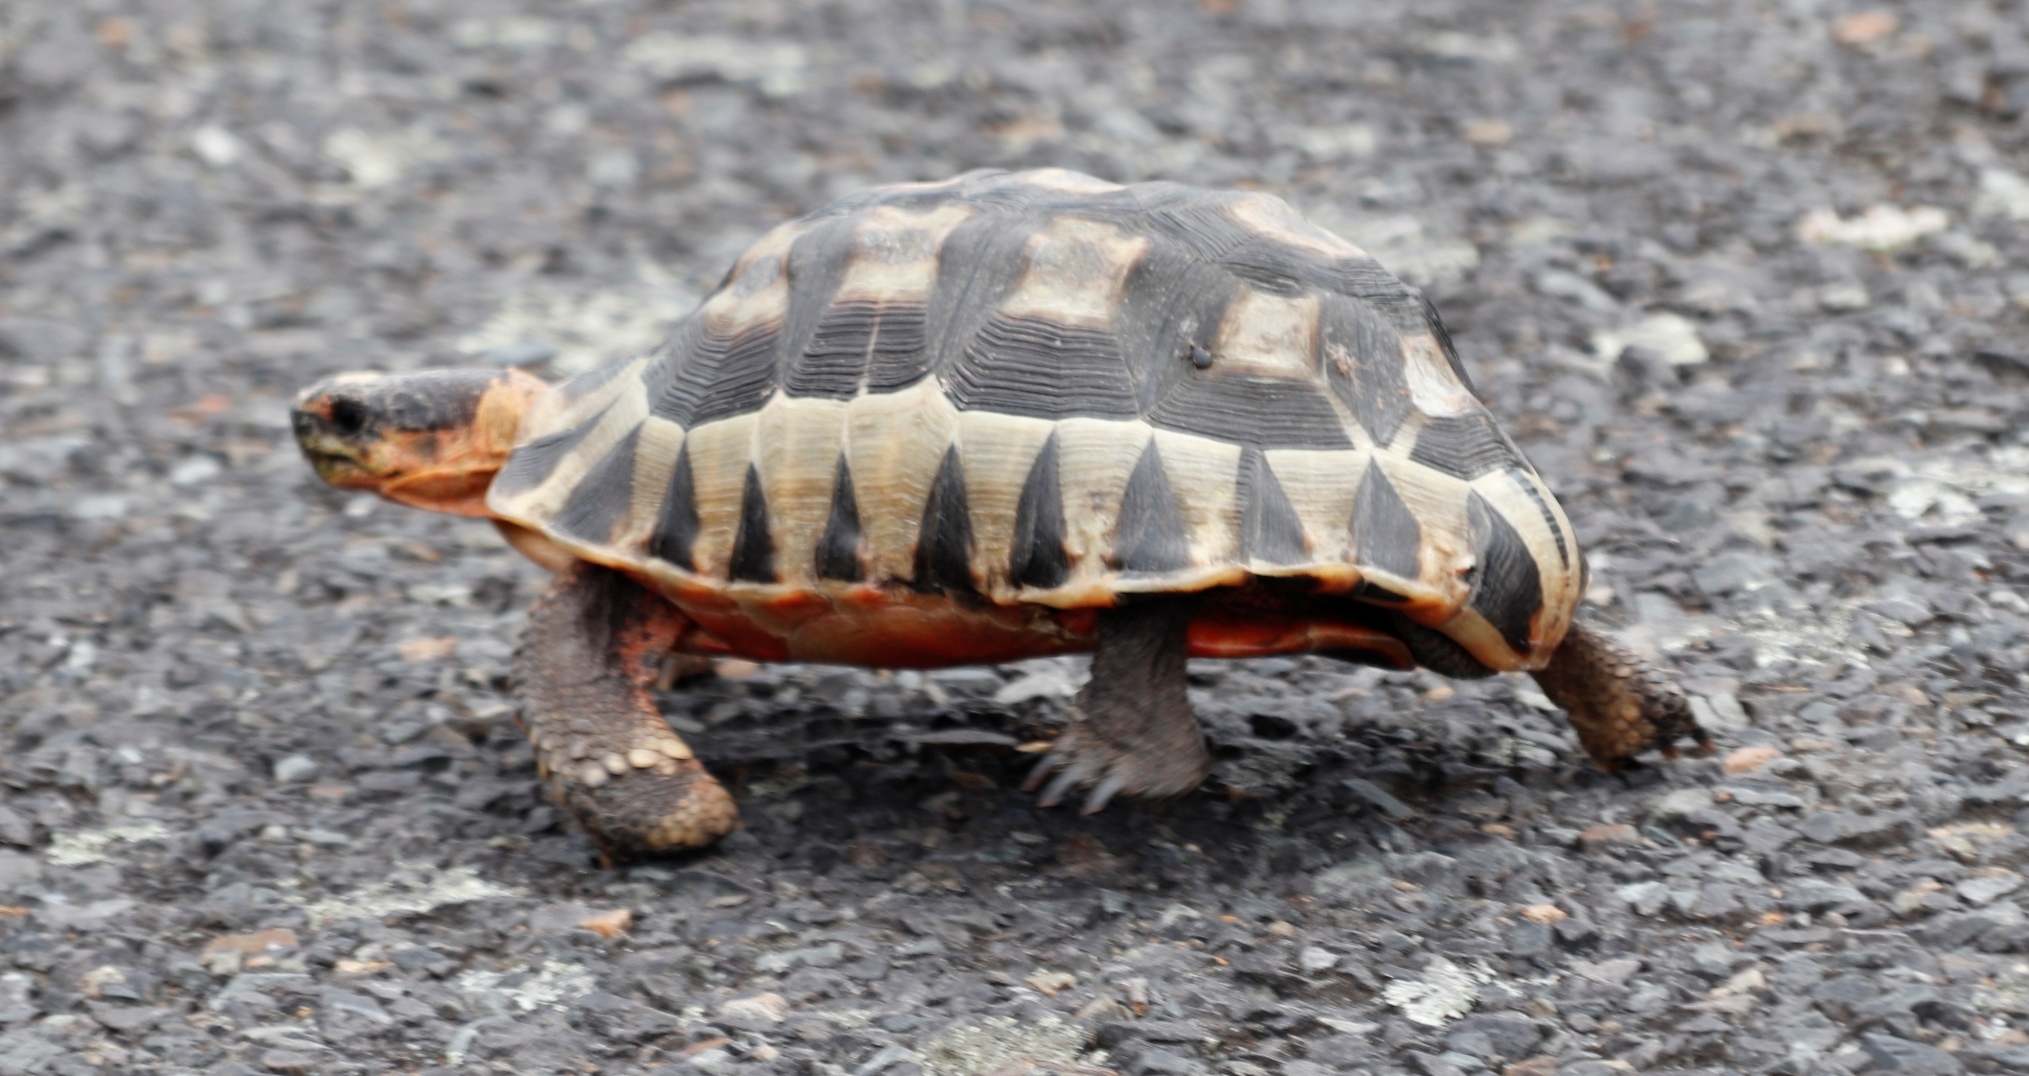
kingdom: Animalia
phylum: Chordata
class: Testudines
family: Testudinidae
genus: Chersina
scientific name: Chersina angulata
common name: South african bowsprit tortoise
